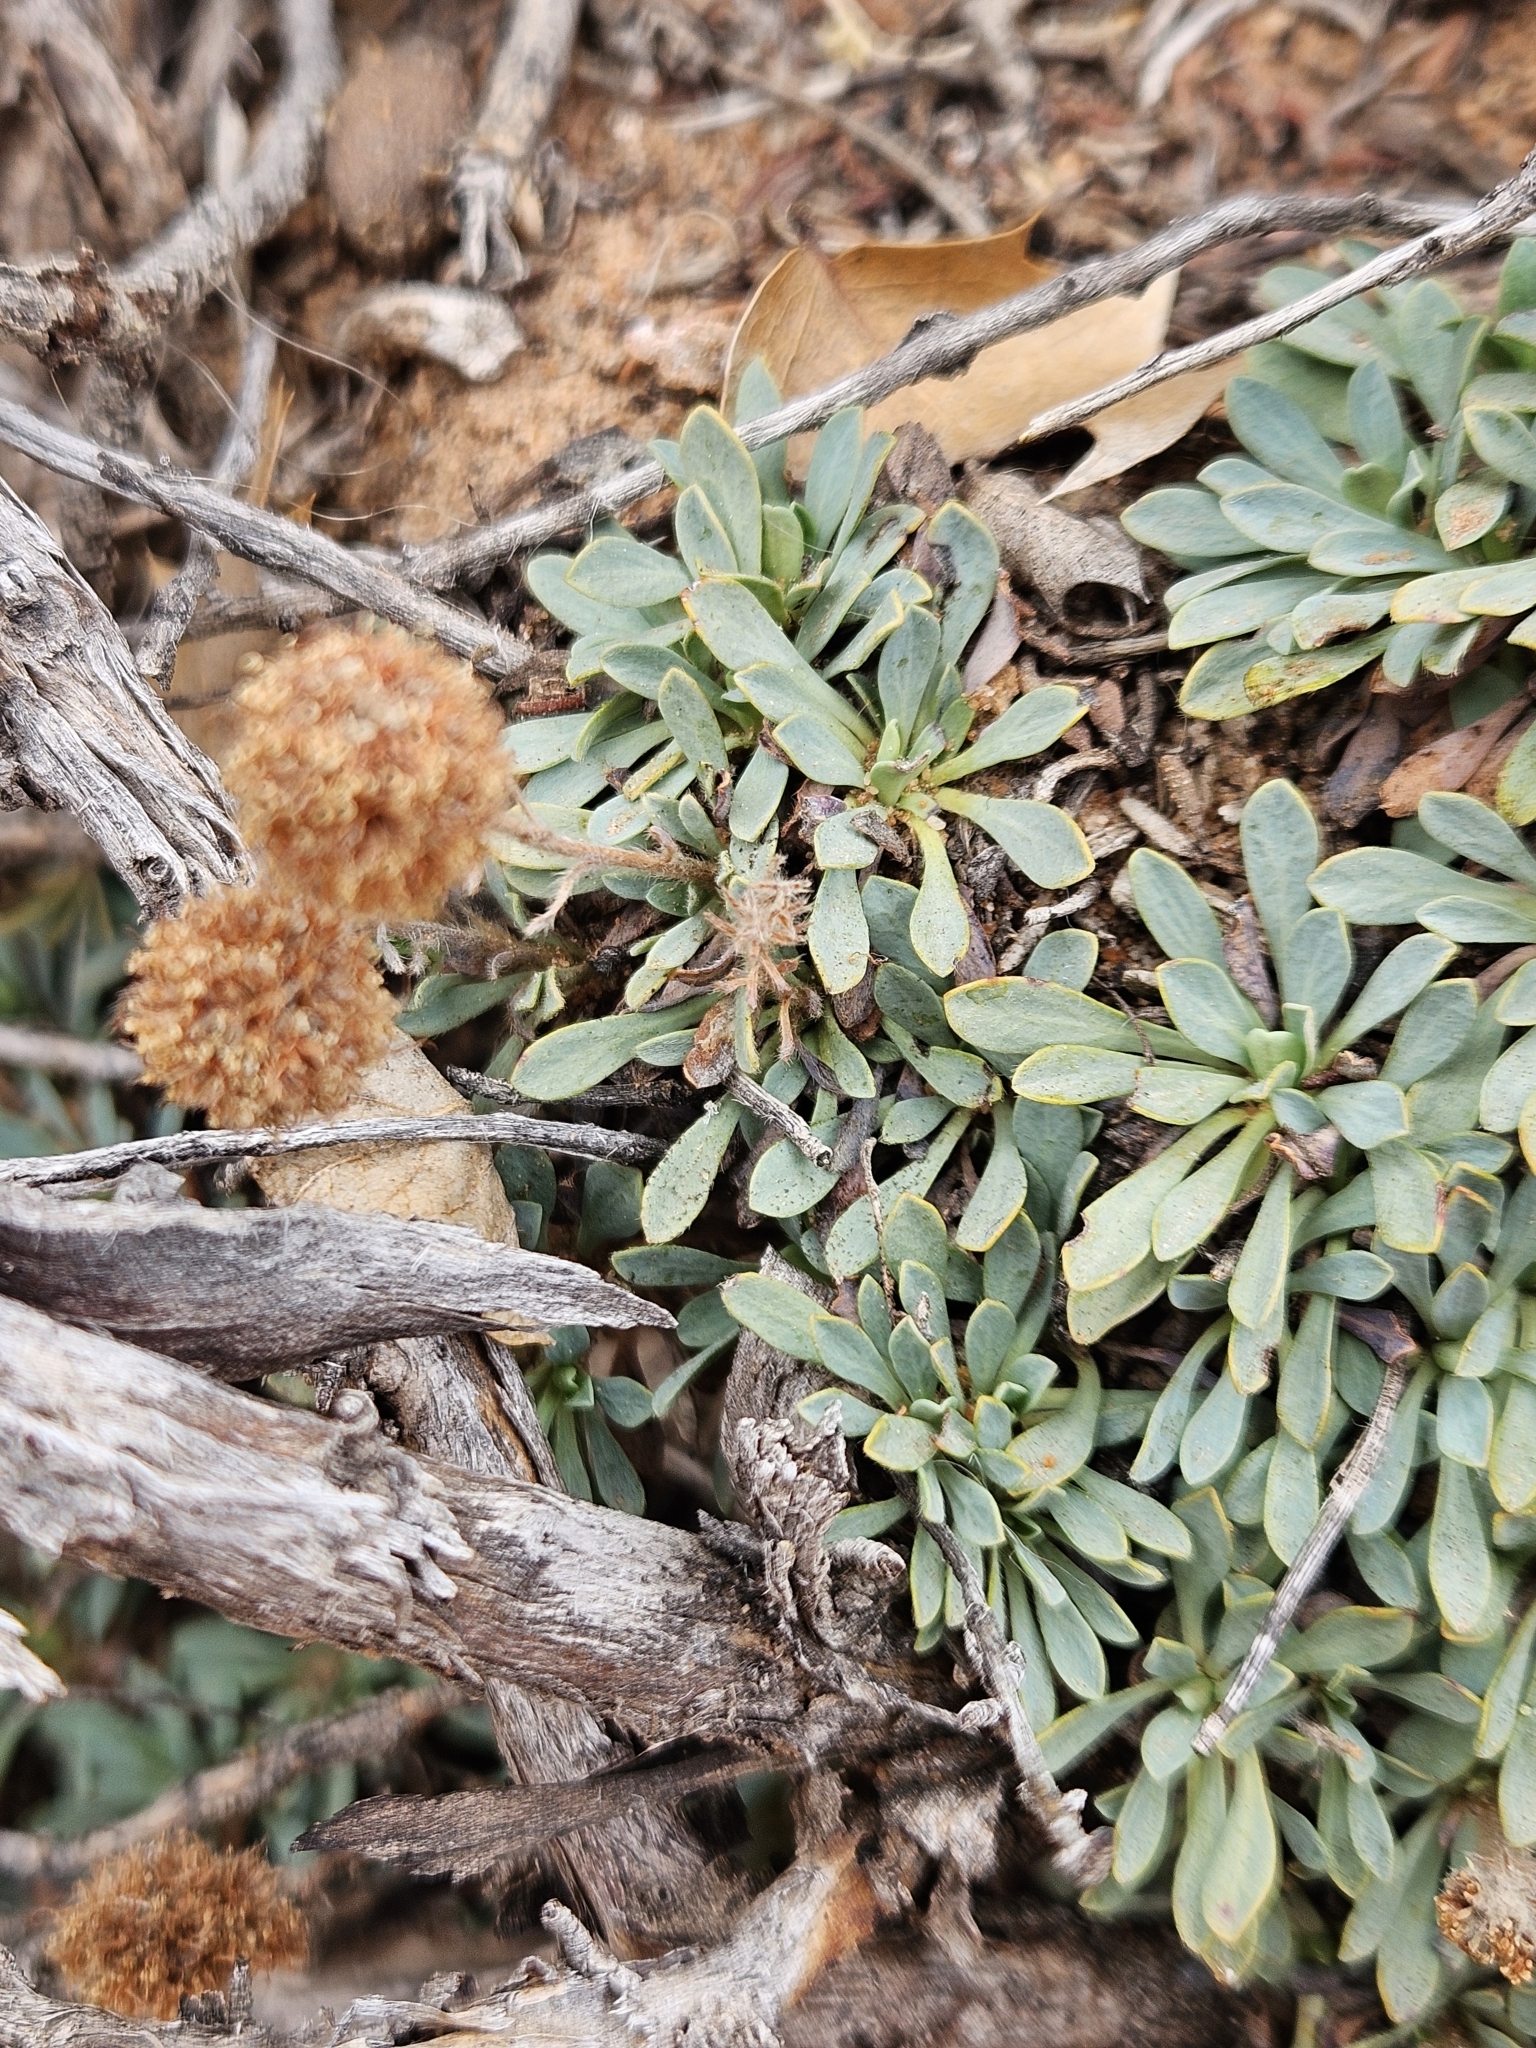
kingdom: Plantae
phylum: Tracheophyta
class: Magnoliopsida
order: Rosales
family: Rosaceae
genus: Petrophytum
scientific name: Petrophytum caespitosum
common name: Mat rockspirea
